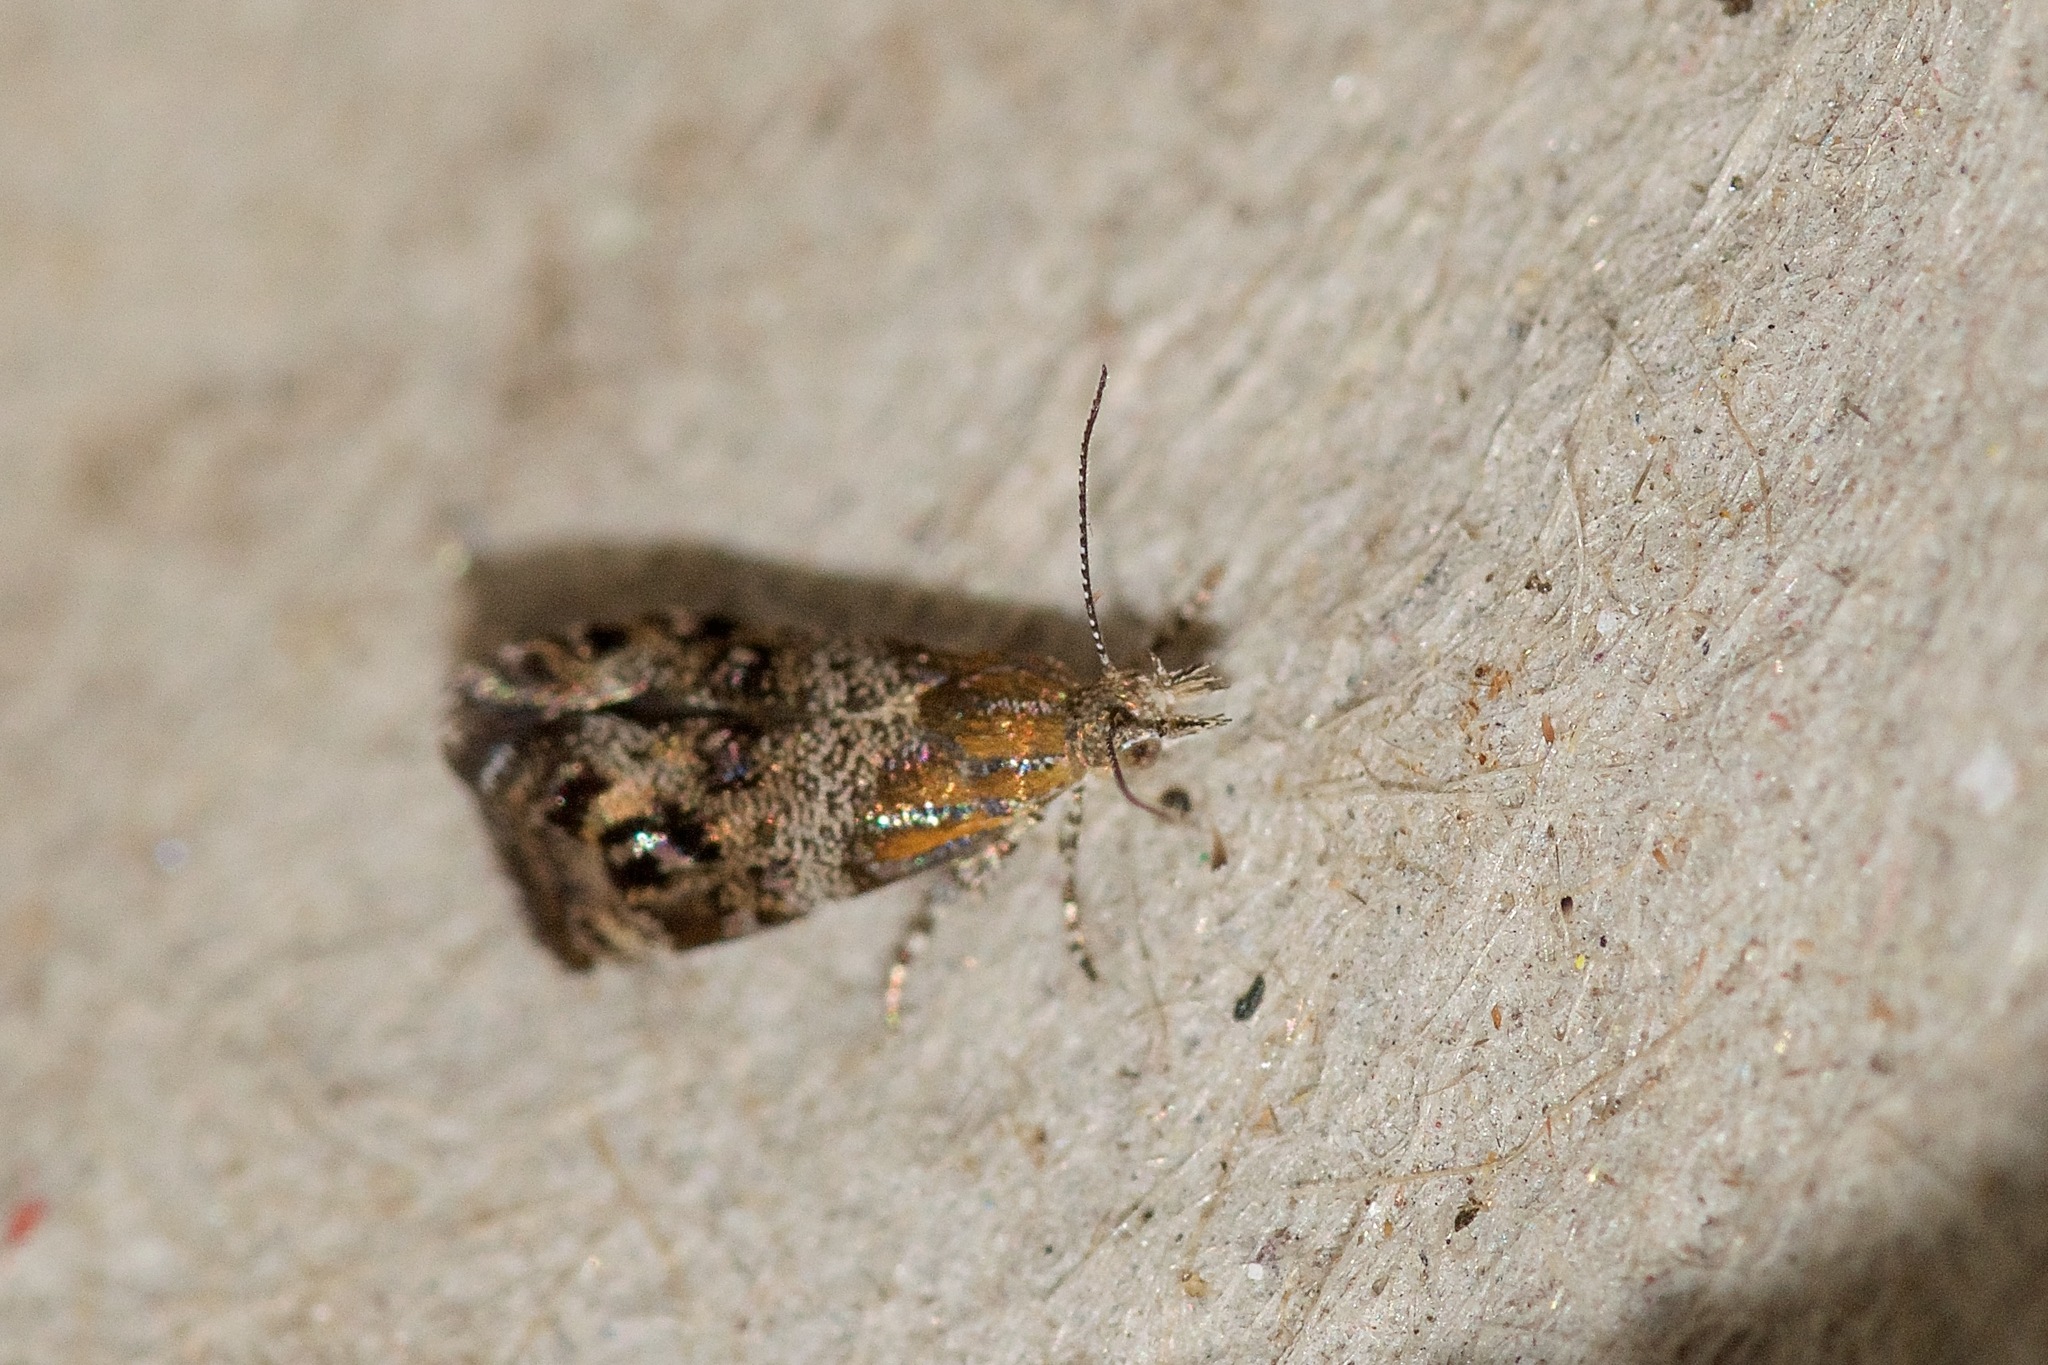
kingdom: Animalia
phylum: Arthropoda
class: Insecta
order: Lepidoptera
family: Choreutidae
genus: Tebenna
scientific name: Tebenna gnaphaliella
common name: Everlasting tebenna moth
